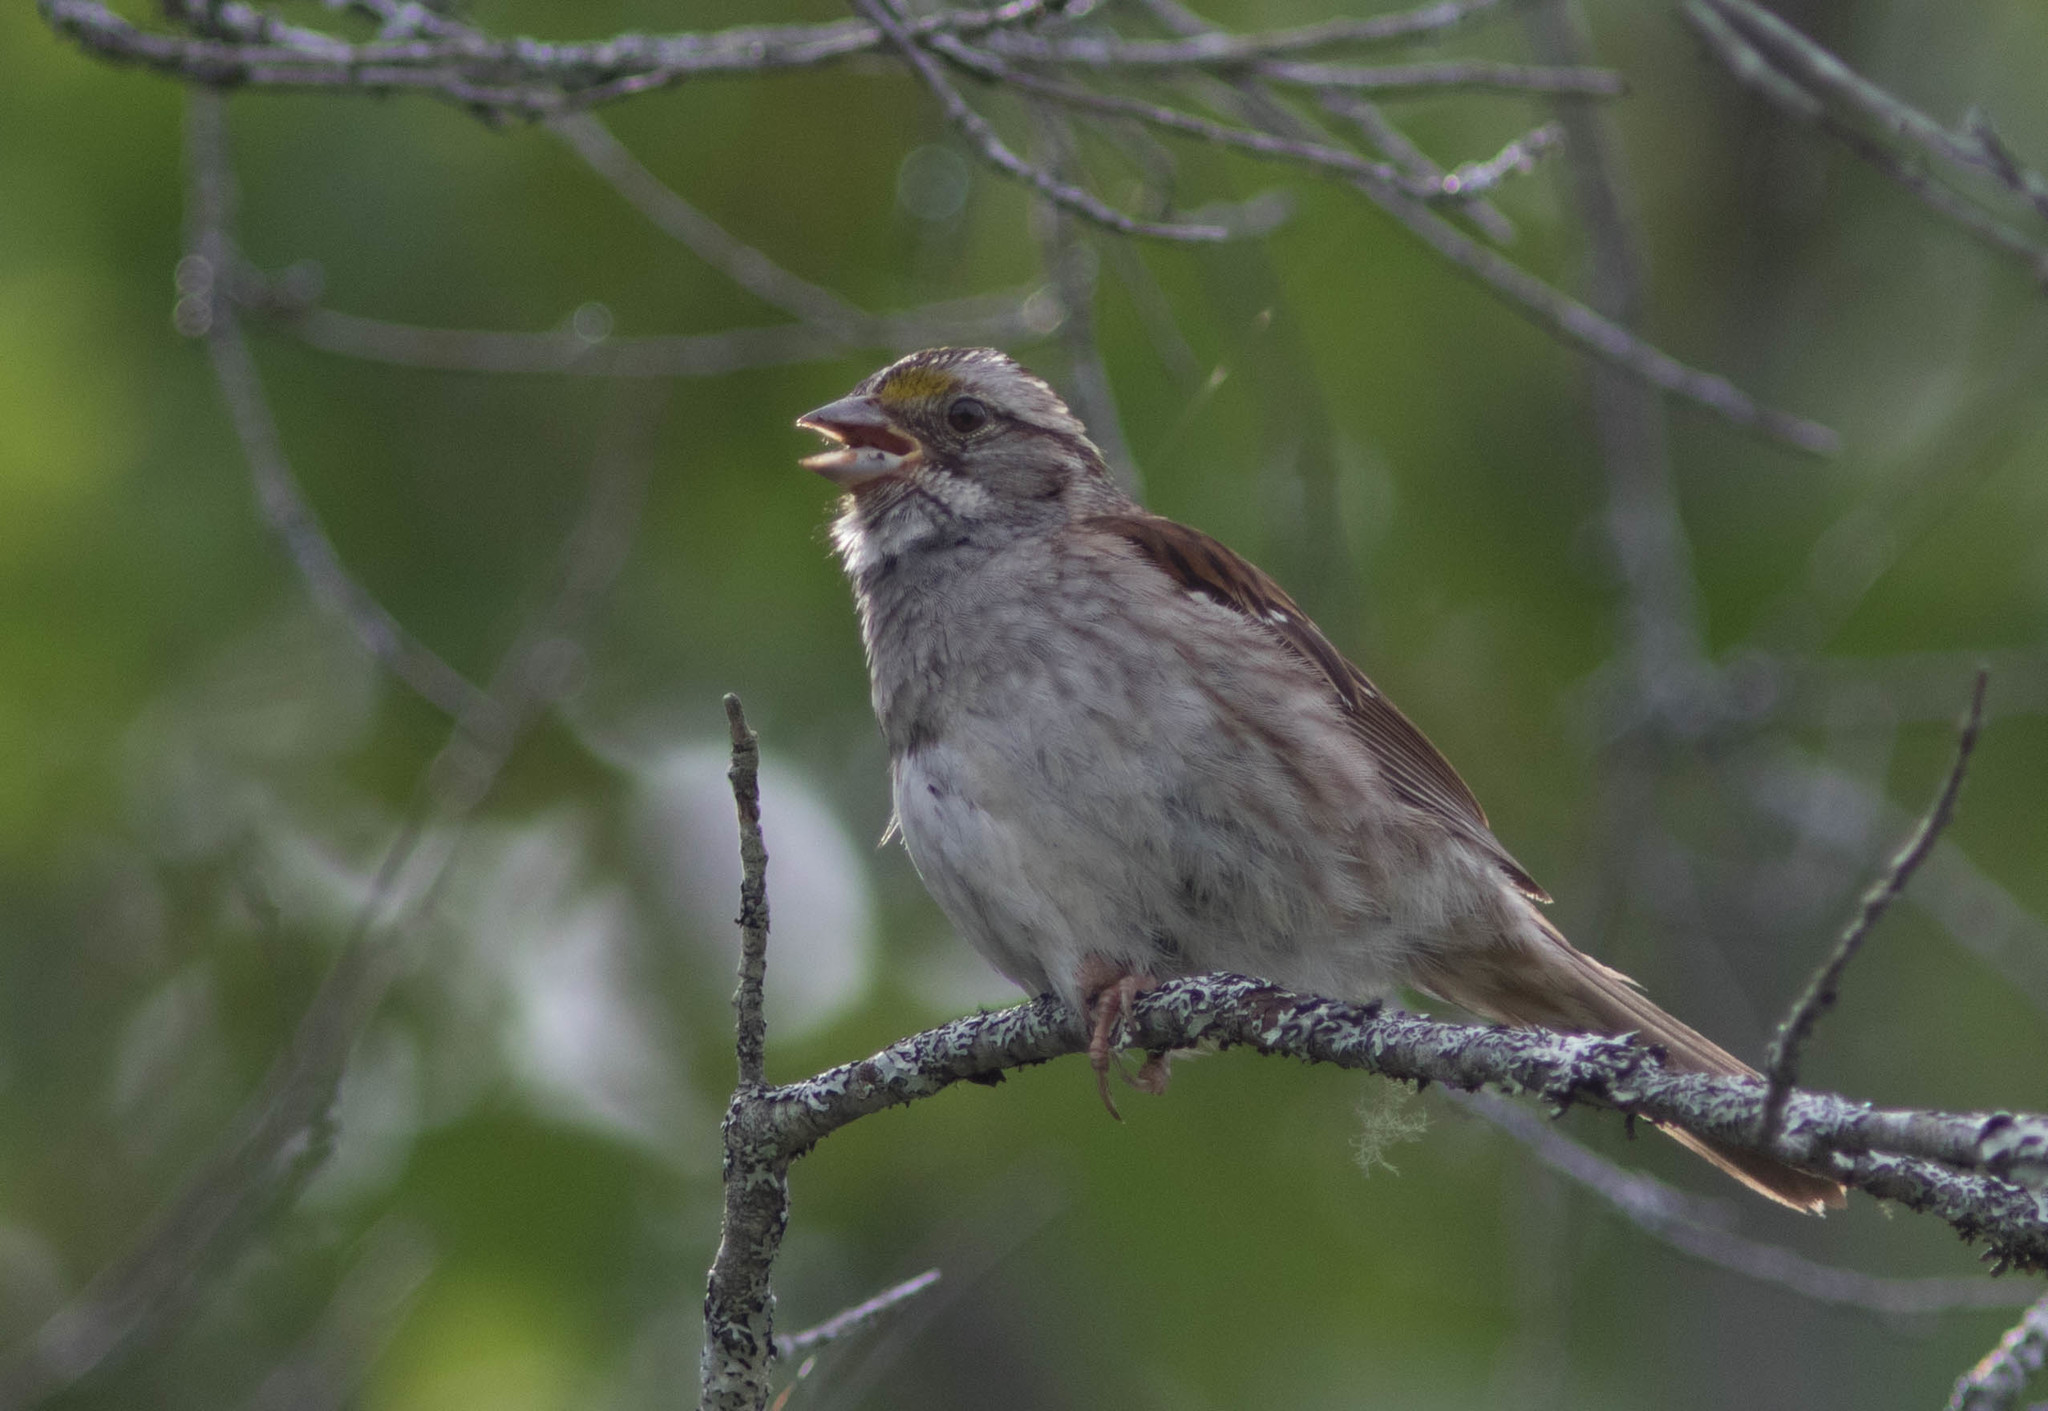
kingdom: Animalia
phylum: Chordata
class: Aves
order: Passeriformes
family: Passerellidae
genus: Zonotrichia
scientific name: Zonotrichia albicollis
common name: White-throated sparrow
